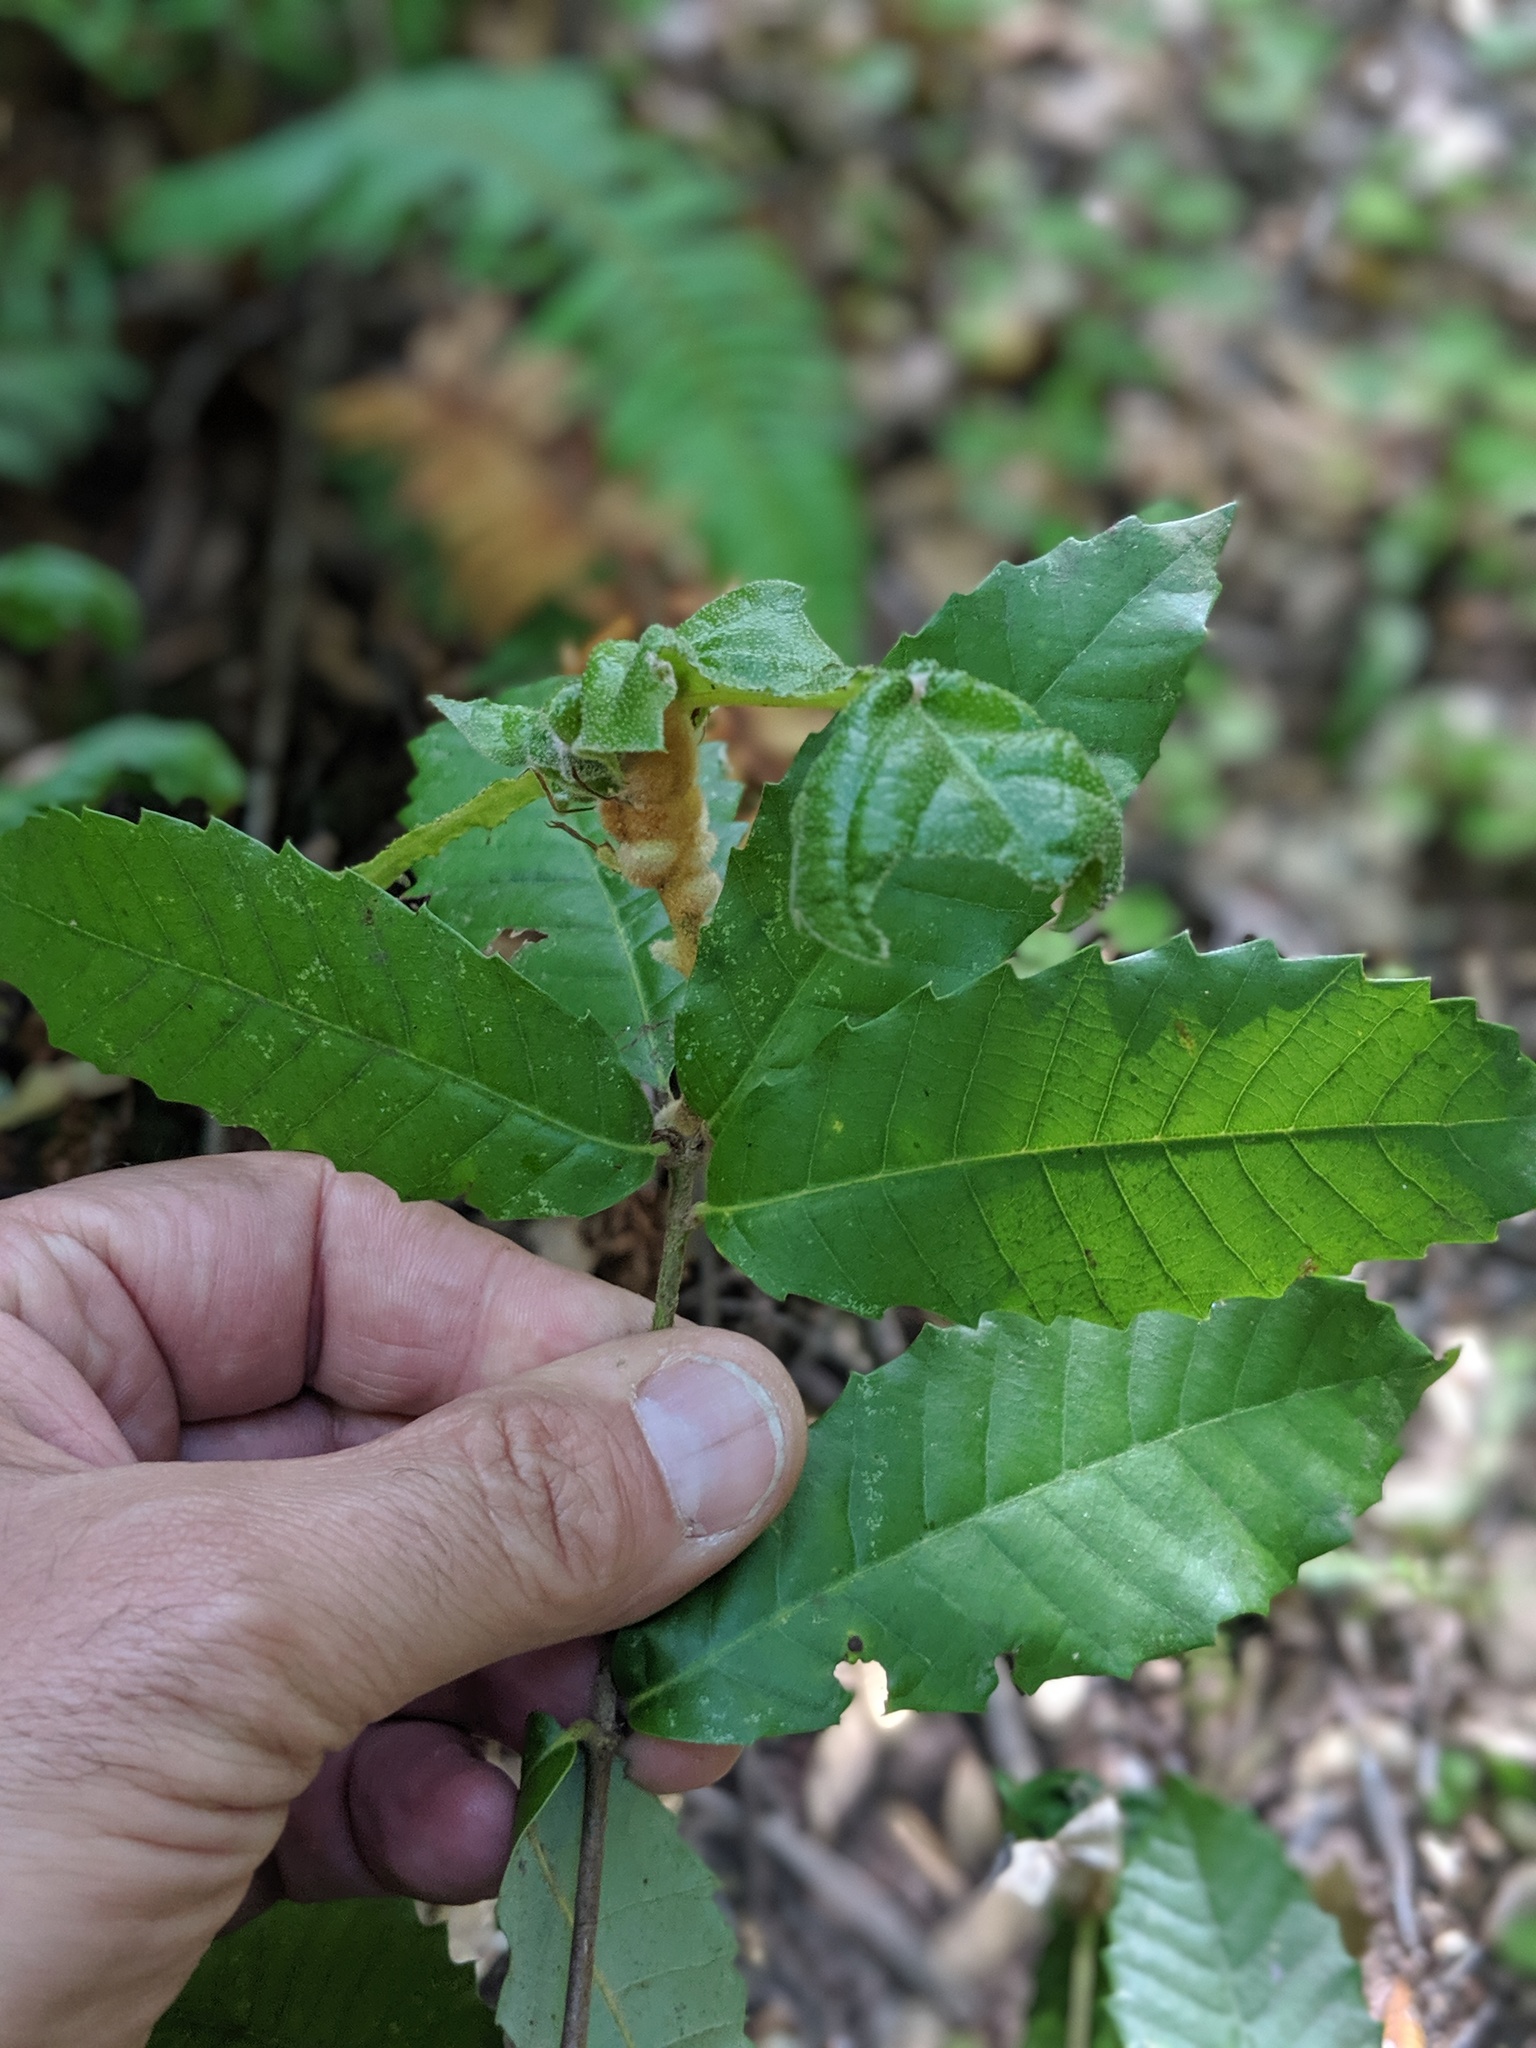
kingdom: Plantae
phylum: Tracheophyta
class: Magnoliopsida
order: Fagales
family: Fagaceae
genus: Notholithocarpus
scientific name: Notholithocarpus densiflorus
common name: Tan bark oak
